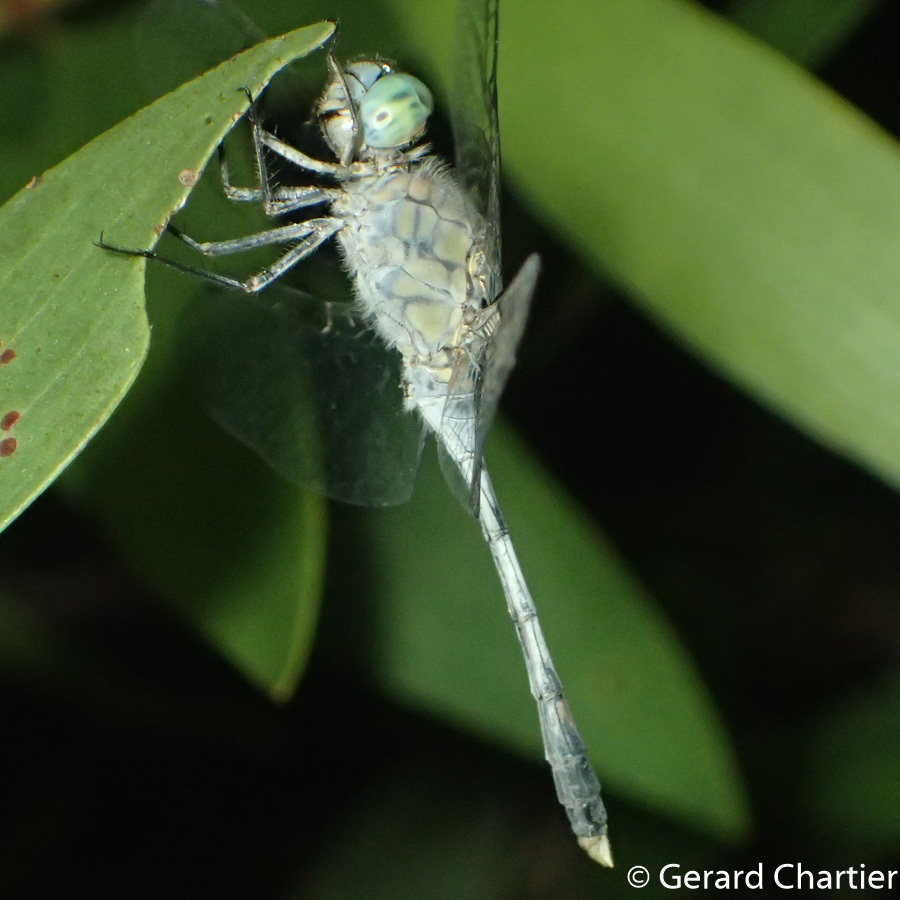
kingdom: Animalia
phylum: Arthropoda
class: Insecta
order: Odonata
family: Libellulidae
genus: Diplacodes
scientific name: Diplacodes trivialis
